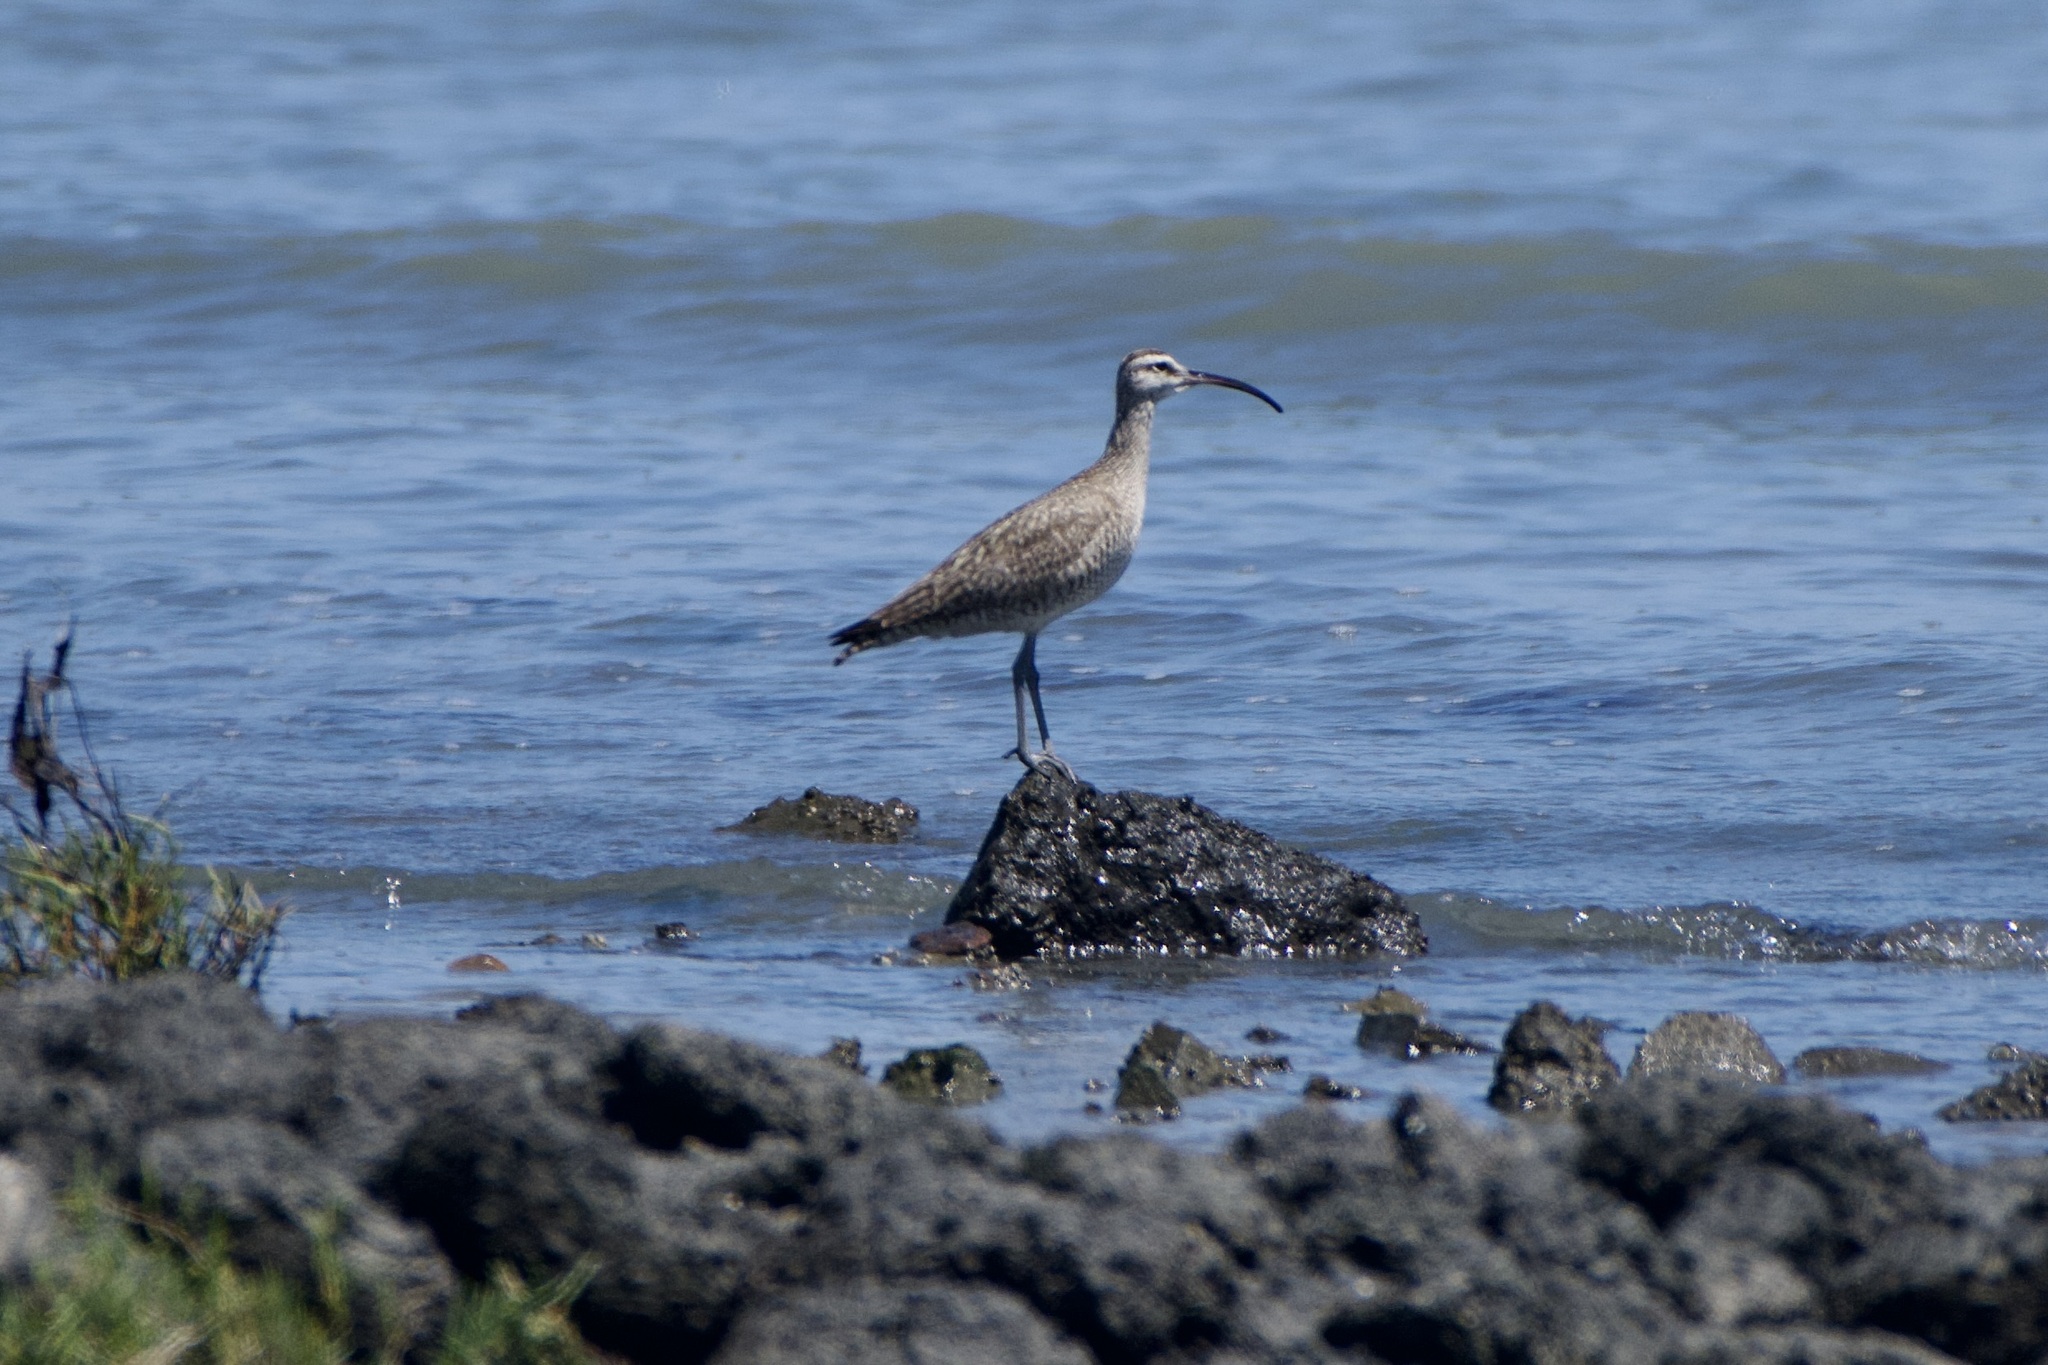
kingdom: Animalia
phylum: Chordata
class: Aves
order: Charadriiformes
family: Scolopacidae
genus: Numenius
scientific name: Numenius phaeopus
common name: Whimbrel
